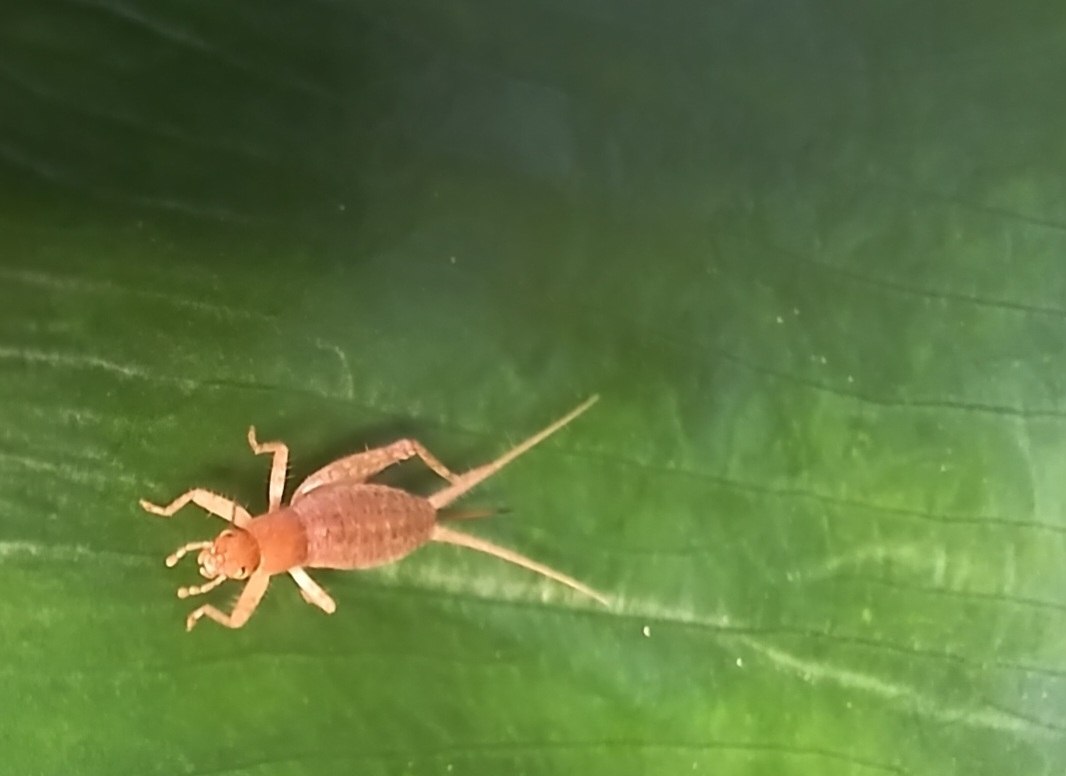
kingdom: Animalia
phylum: Arthropoda
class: Insecta
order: Orthoptera
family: Mogoplistidae
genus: Ornebius
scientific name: Ornebius novarae
